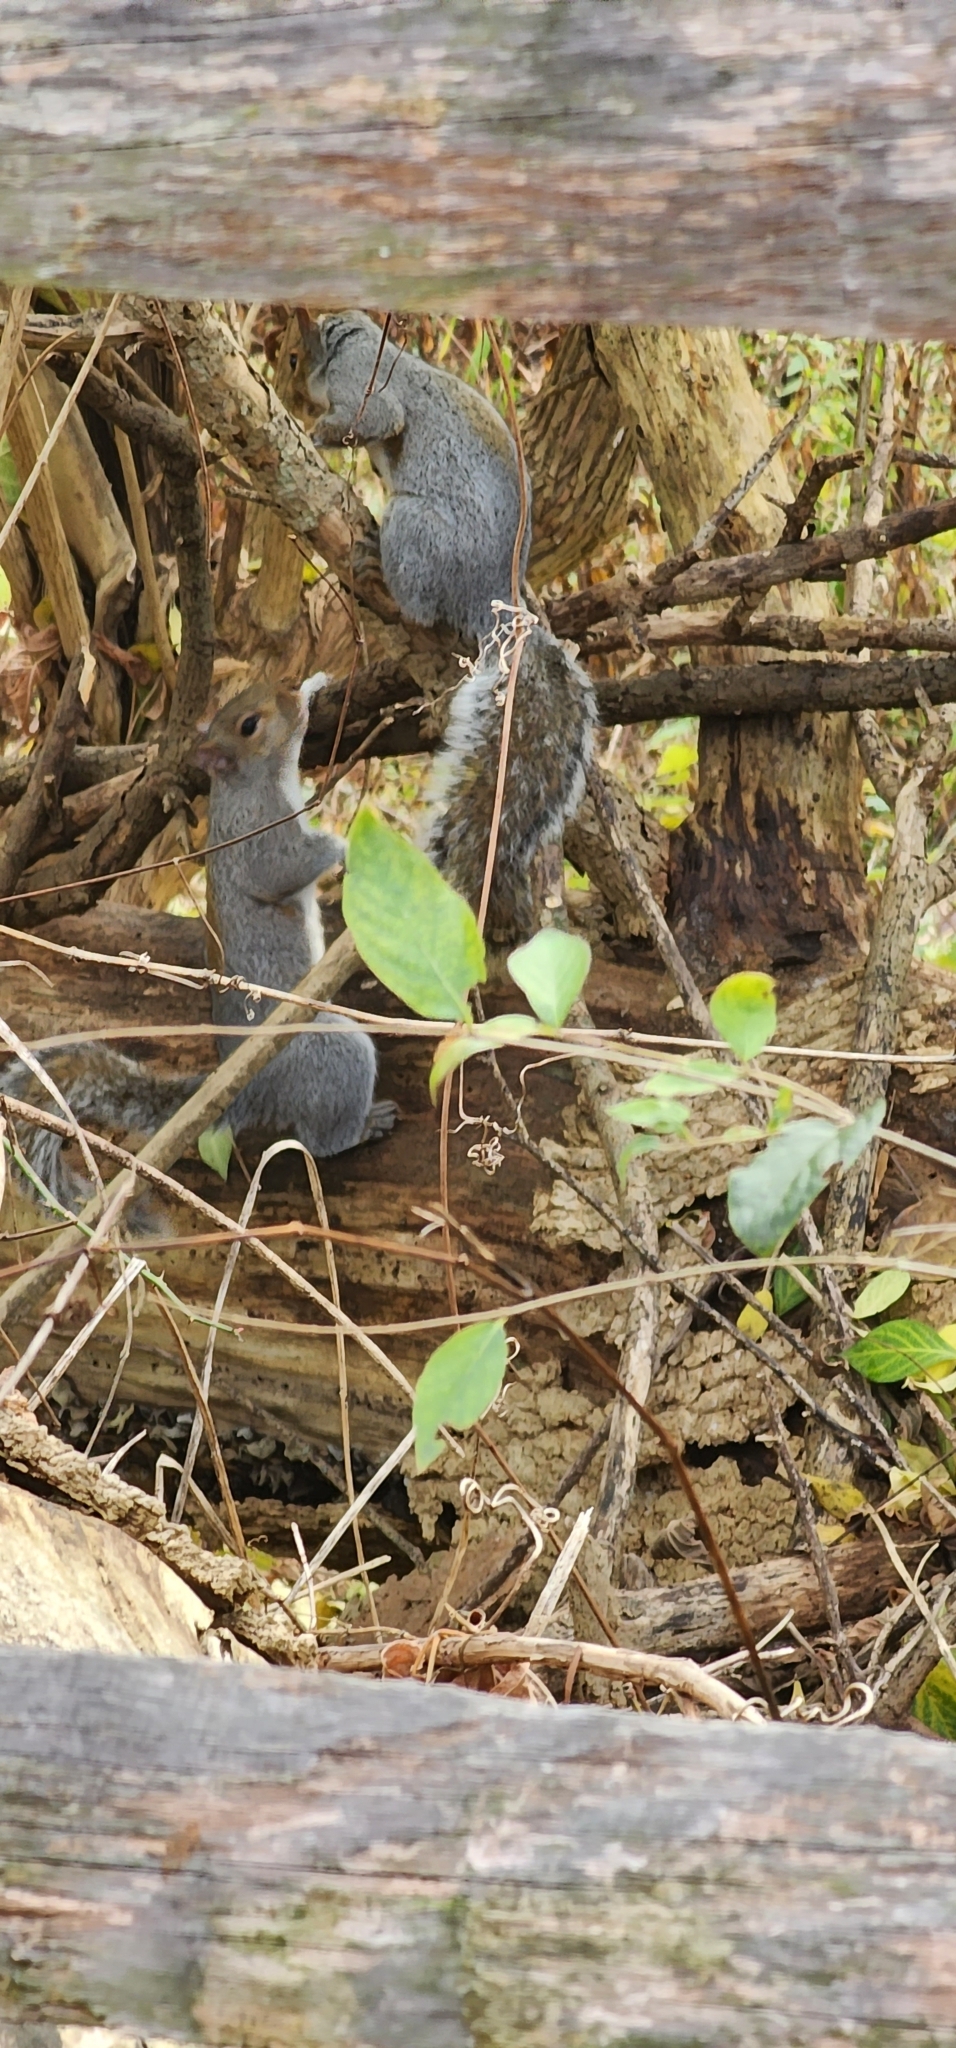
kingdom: Animalia
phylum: Chordata
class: Mammalia
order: Rodentia
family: Sciuridae
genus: Sciurus
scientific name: Sciurus carolinensis
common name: Eastern gray squirrel
